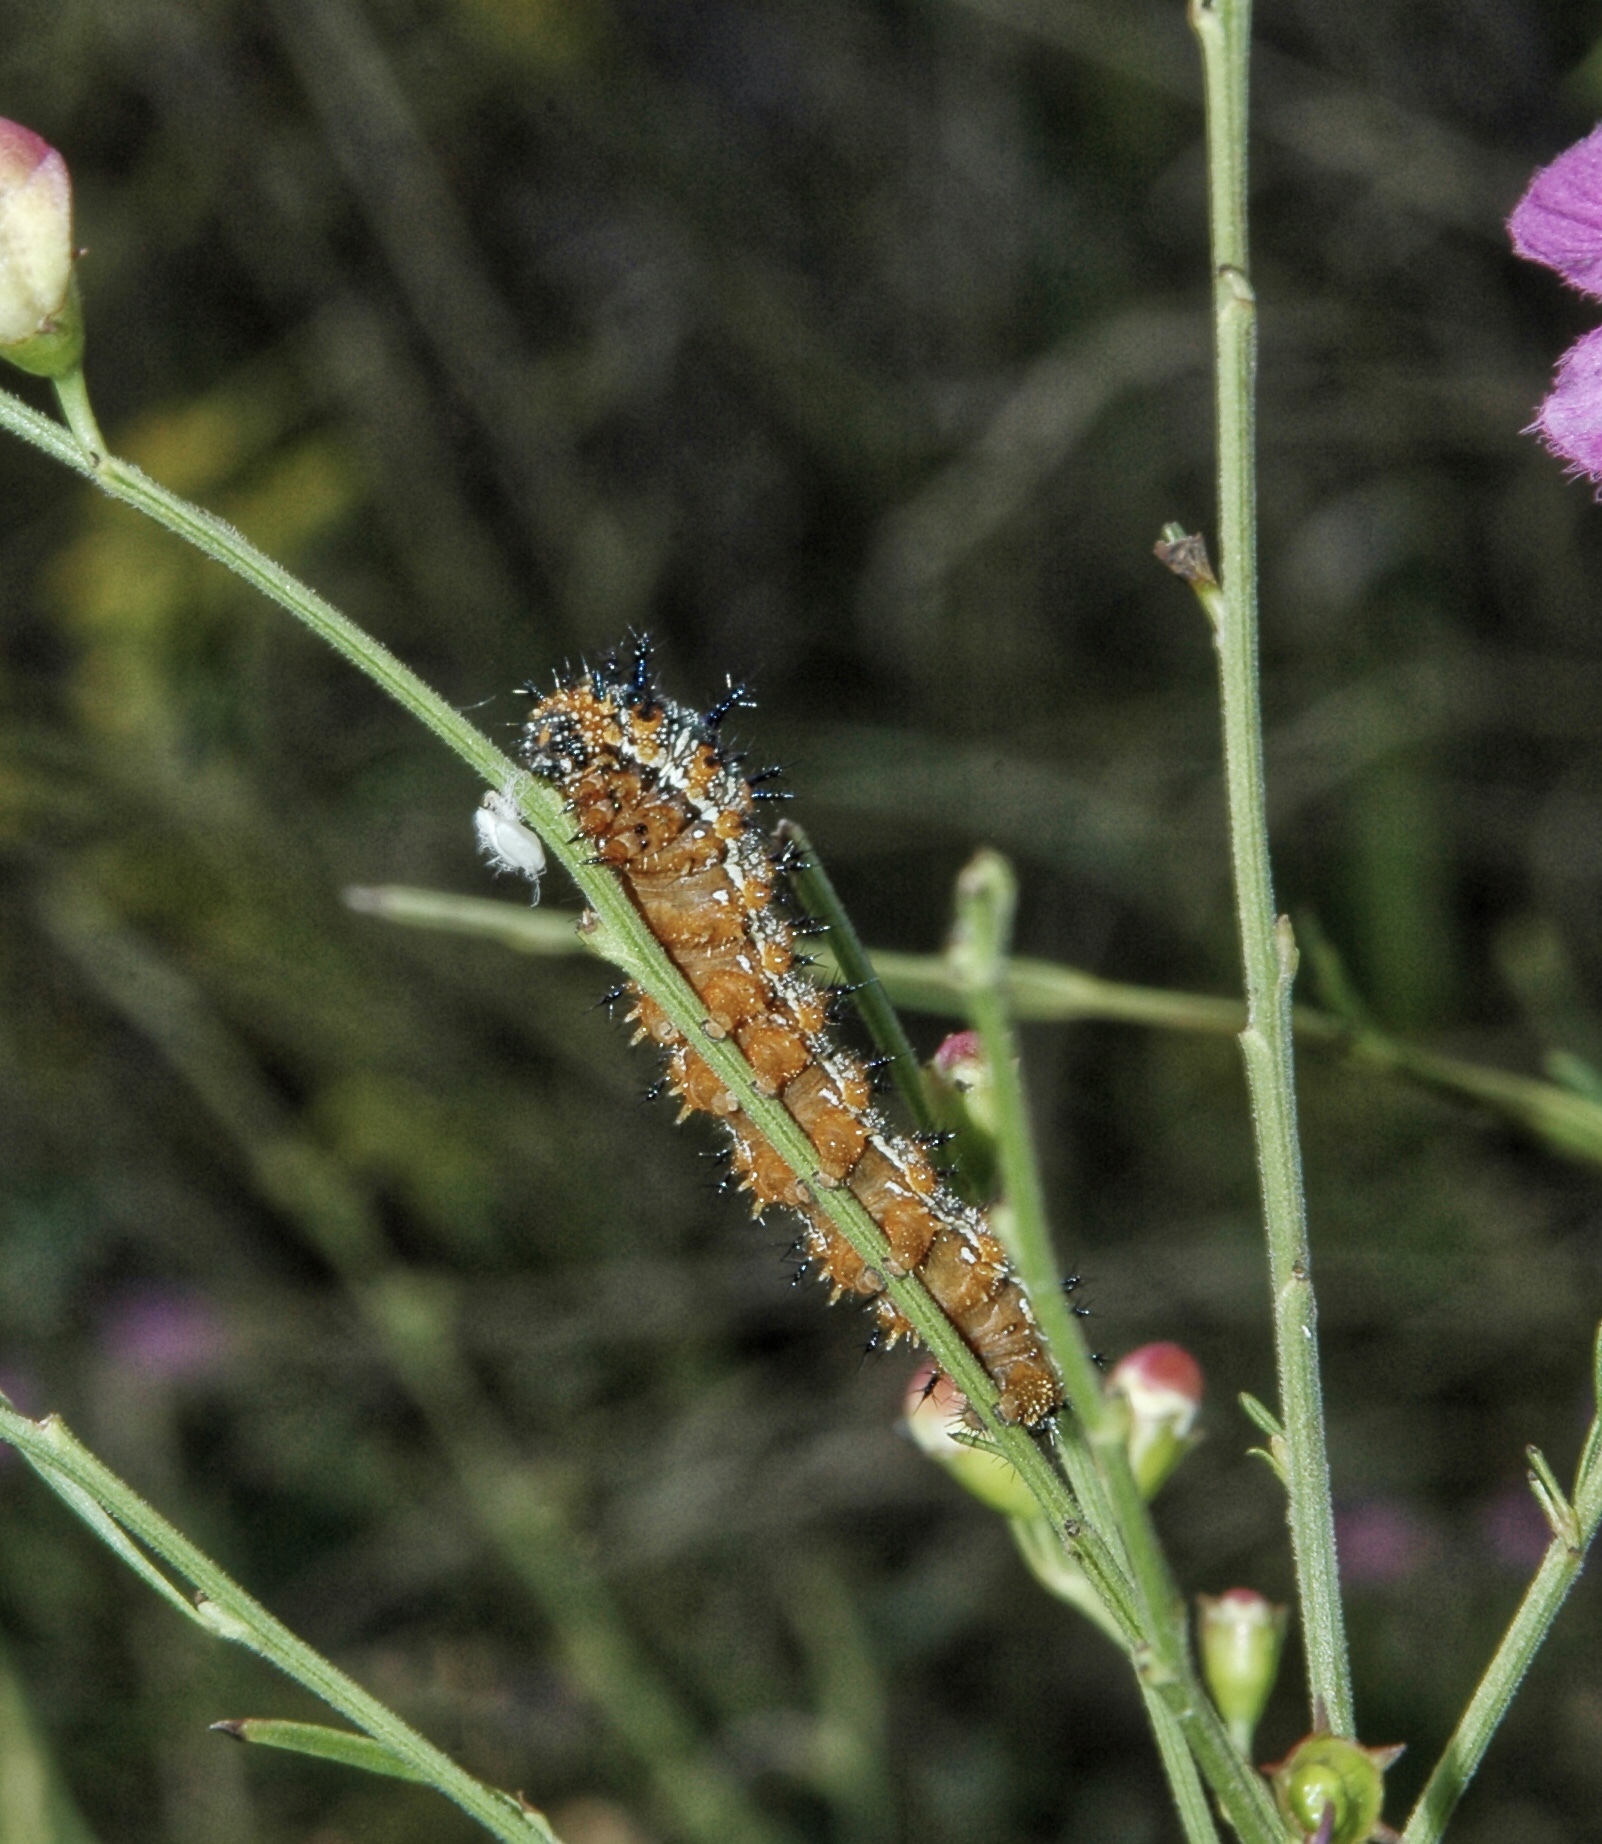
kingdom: Animalia
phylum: Arthropoda
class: Insecta
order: Lepidoptera
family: Nymphalidae
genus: Junonia
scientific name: Junonia coenia
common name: Common buckeye
